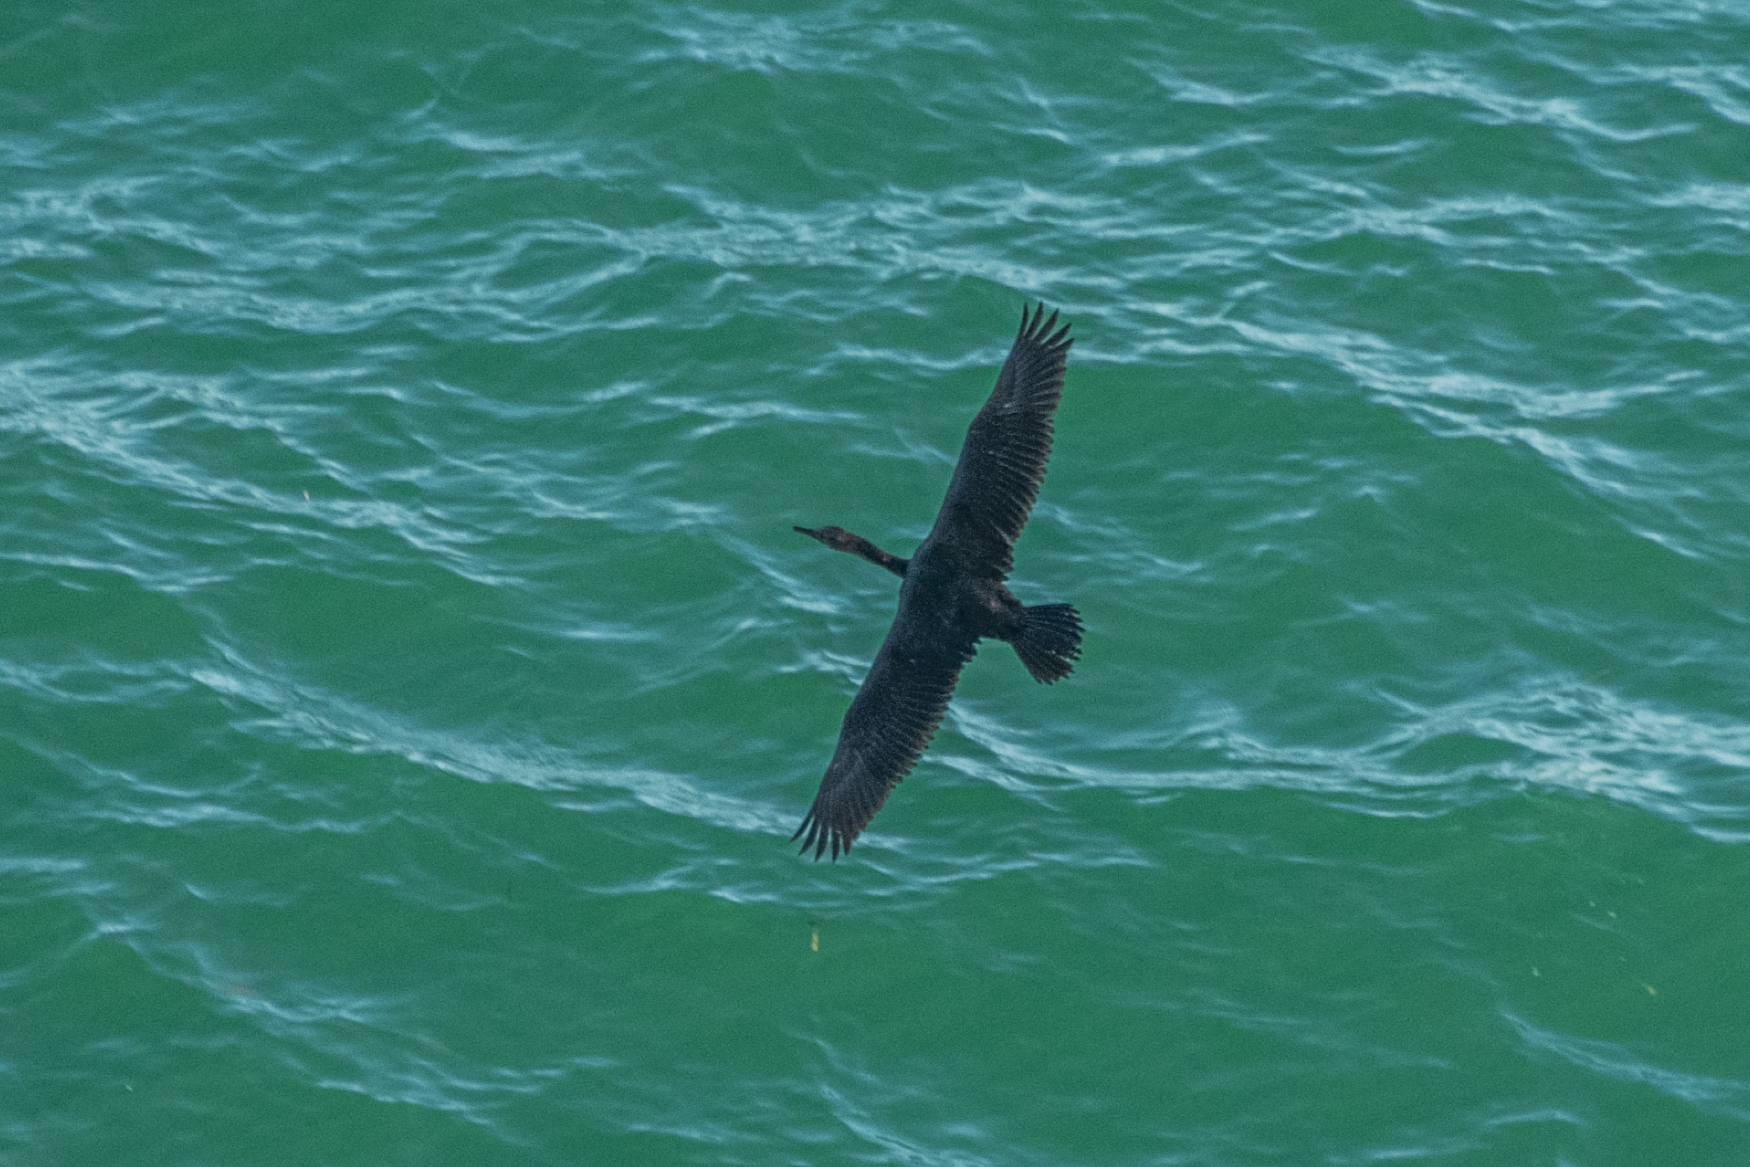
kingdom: Animalia
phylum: Chordata
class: Aves
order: Suliformes
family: Phalacrocoracidae
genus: Phalacrocorax
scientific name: Phalacrocorax pelagicus
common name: Pelagic cormorant
